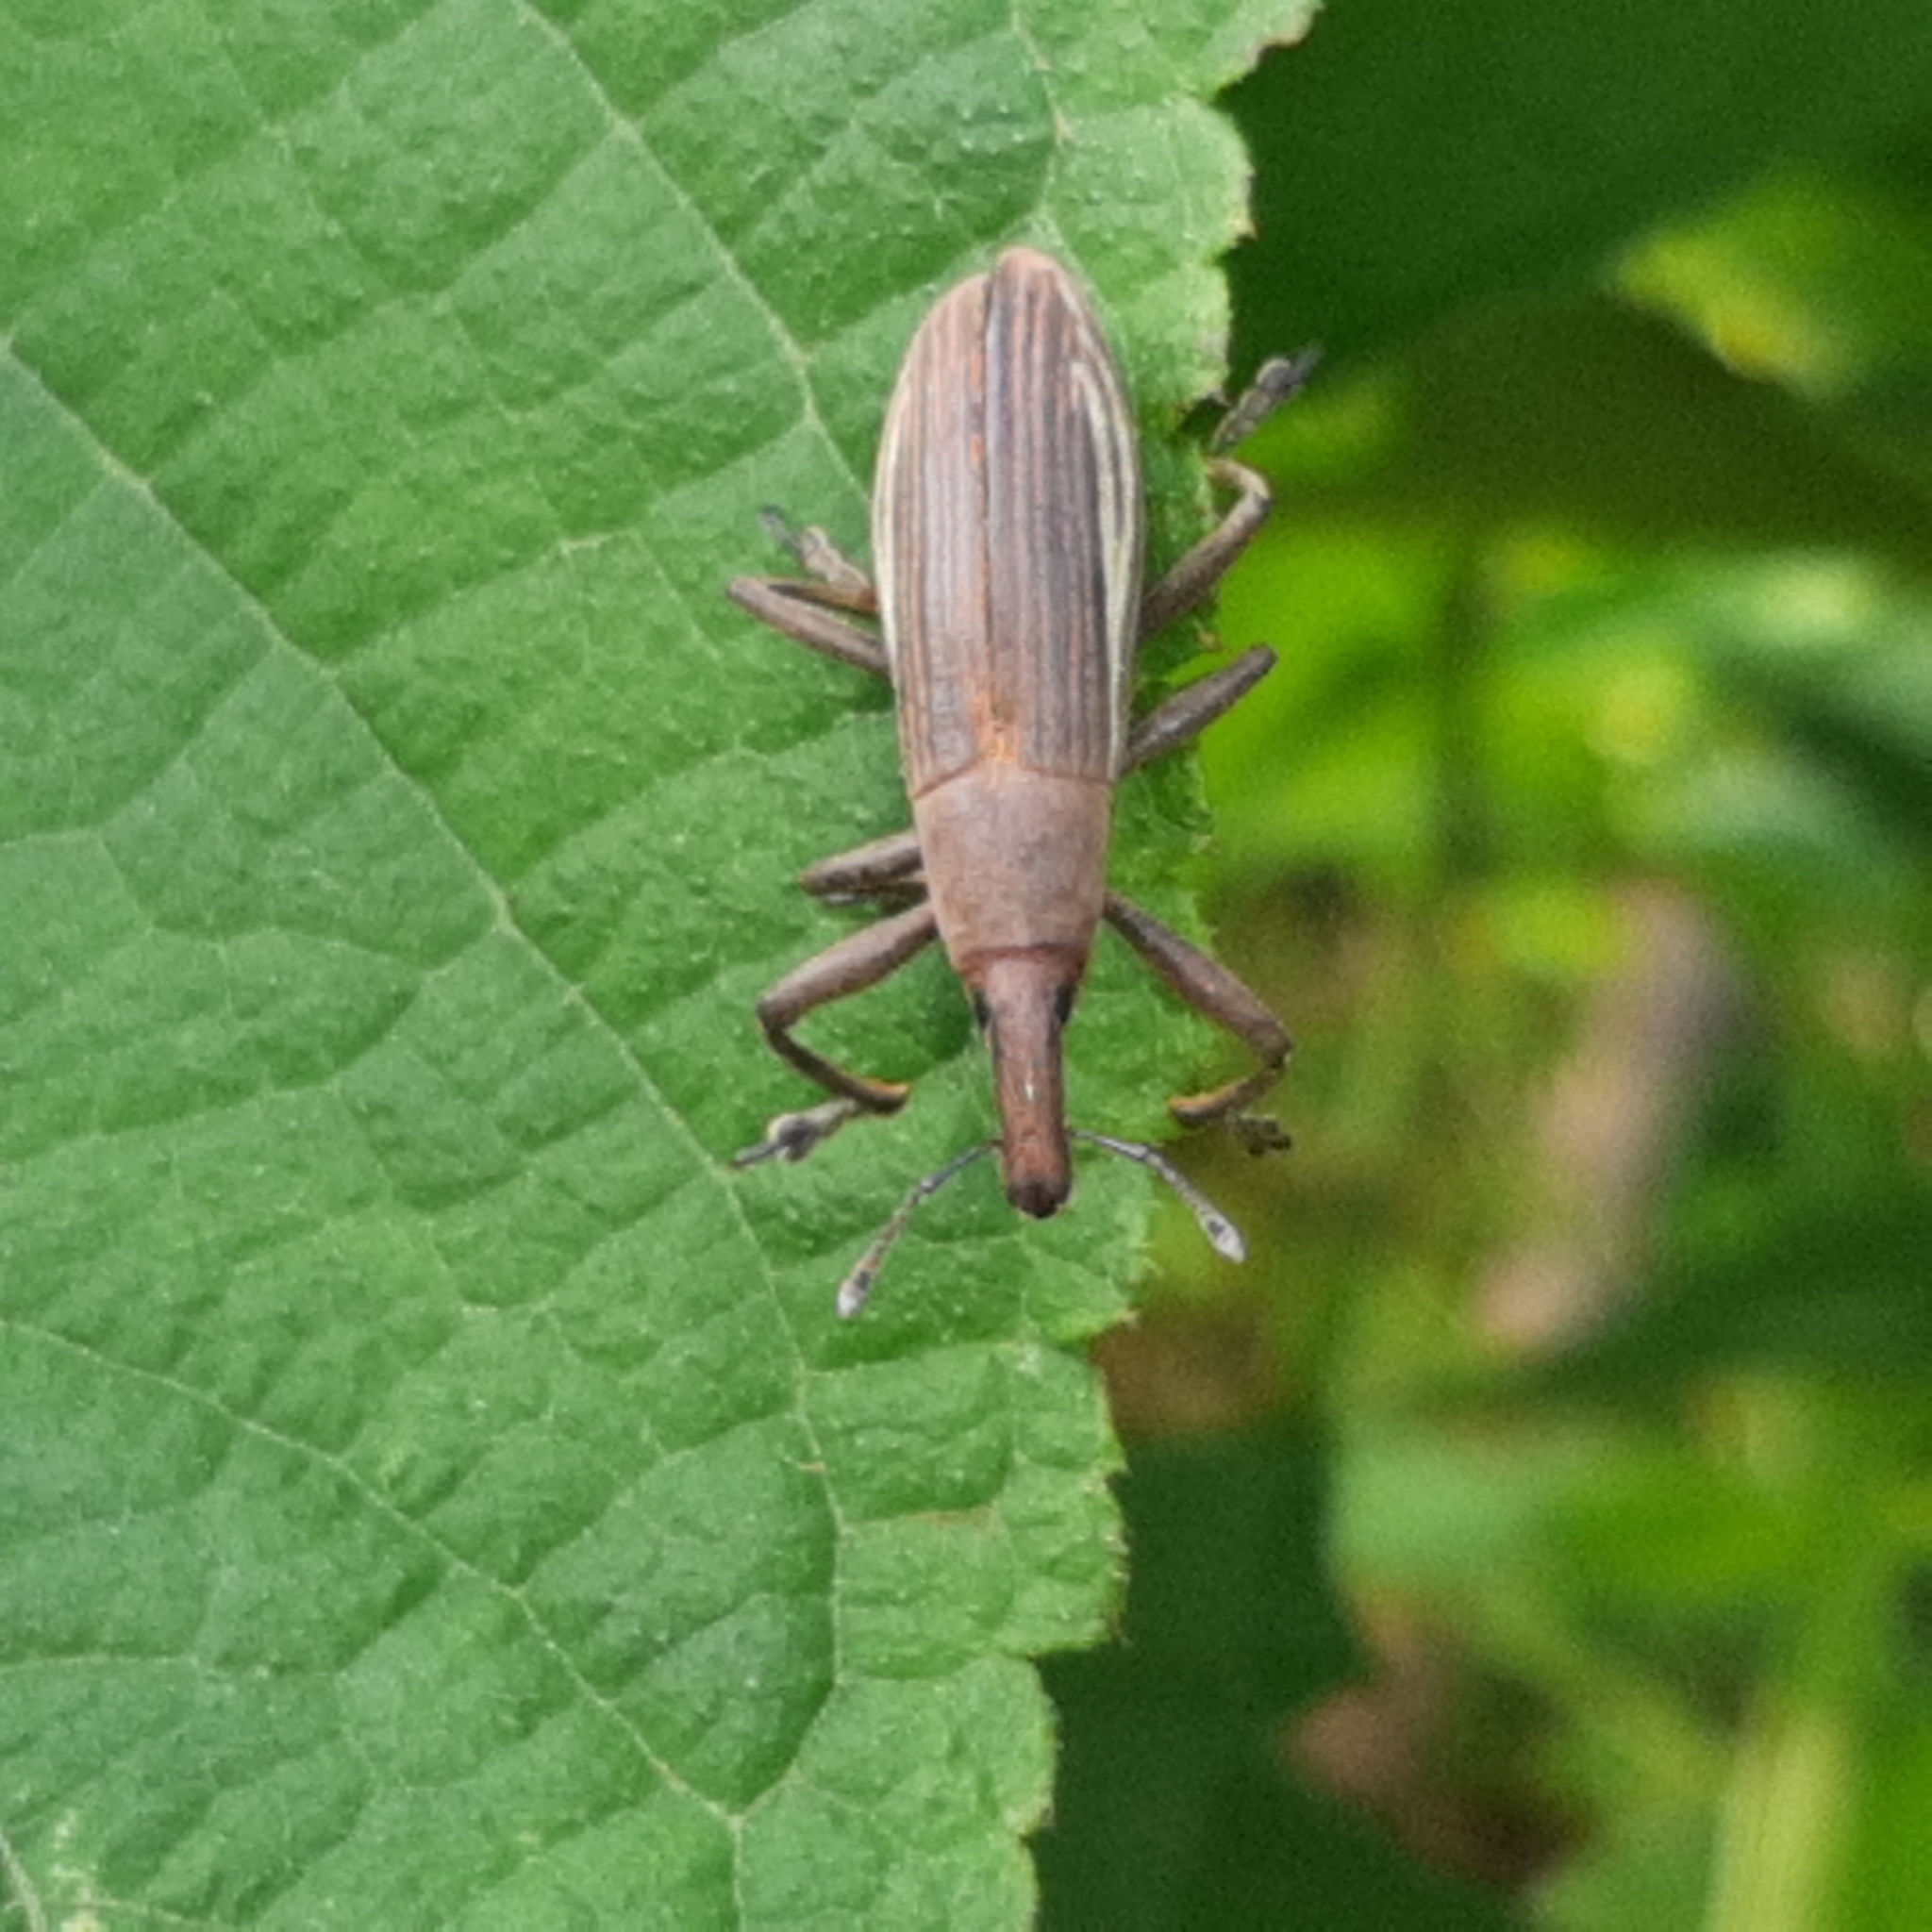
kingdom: Animalia
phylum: Arthropoda
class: Insecta
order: Coleoptera
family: Curculionidae
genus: Lixus
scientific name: Lixus apterus
